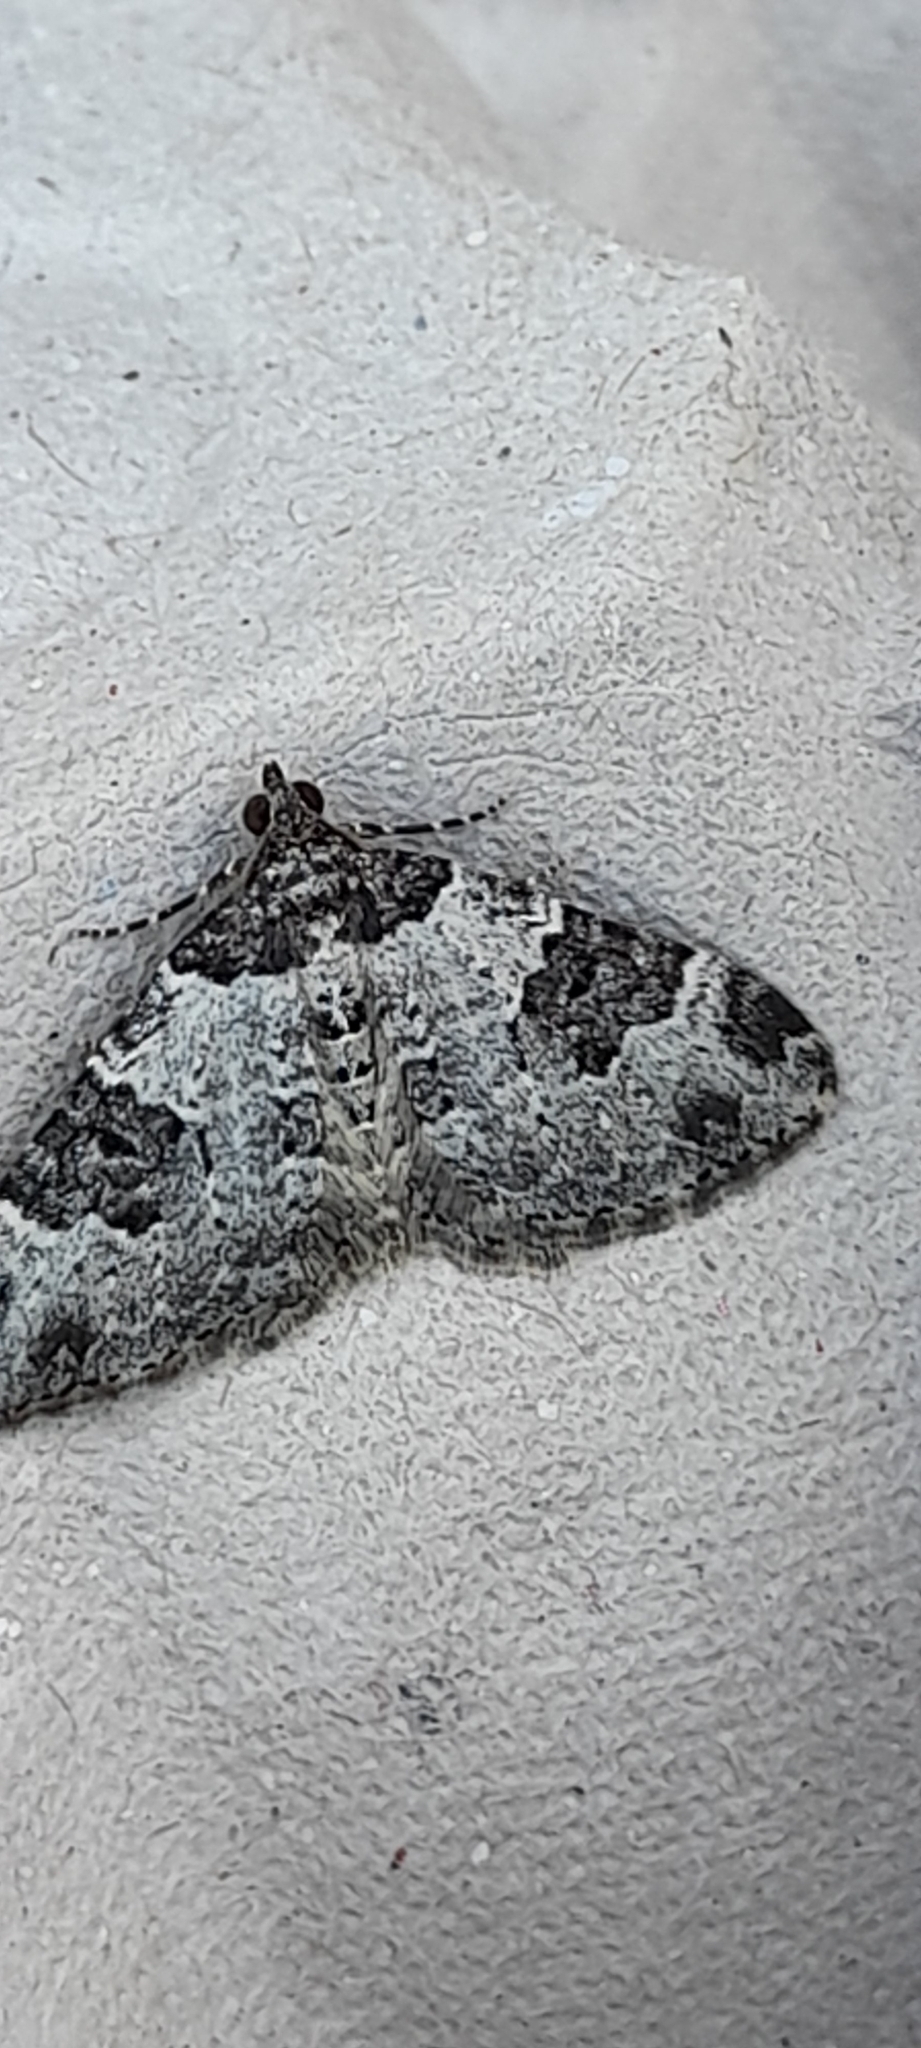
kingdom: Animalia
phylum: Arthropoda
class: Insecta
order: Lepidoptera
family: Geometridae
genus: Xanthorhoe
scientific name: Xanthorhoe fluctuata
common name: Garden carpet
